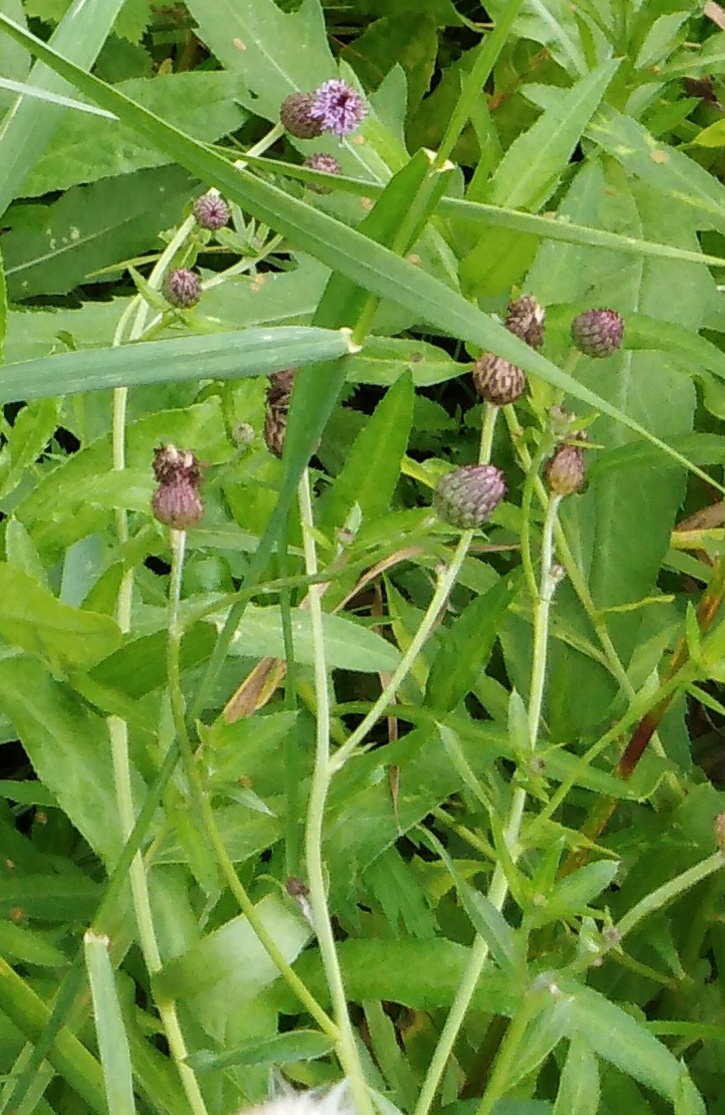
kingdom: Plantae
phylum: Tracheophyta
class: Magnoliopsida
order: Asterales
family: Asteraceae
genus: Cirsium
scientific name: Cirsium arvense
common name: Creeping thistle
